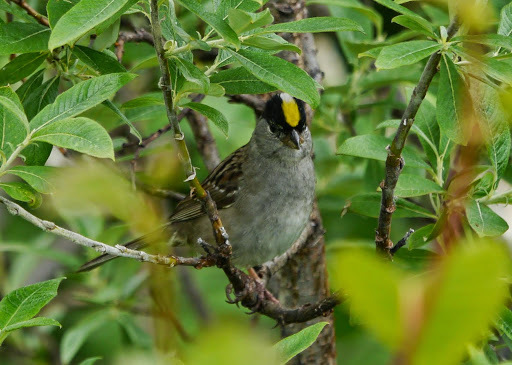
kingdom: Animalia
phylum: Chordata
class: Aves
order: Passeriformes
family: Passerellidae
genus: Zonotrichia
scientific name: Zonotrichia atricapilla
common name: Golden-crowned sparrow
